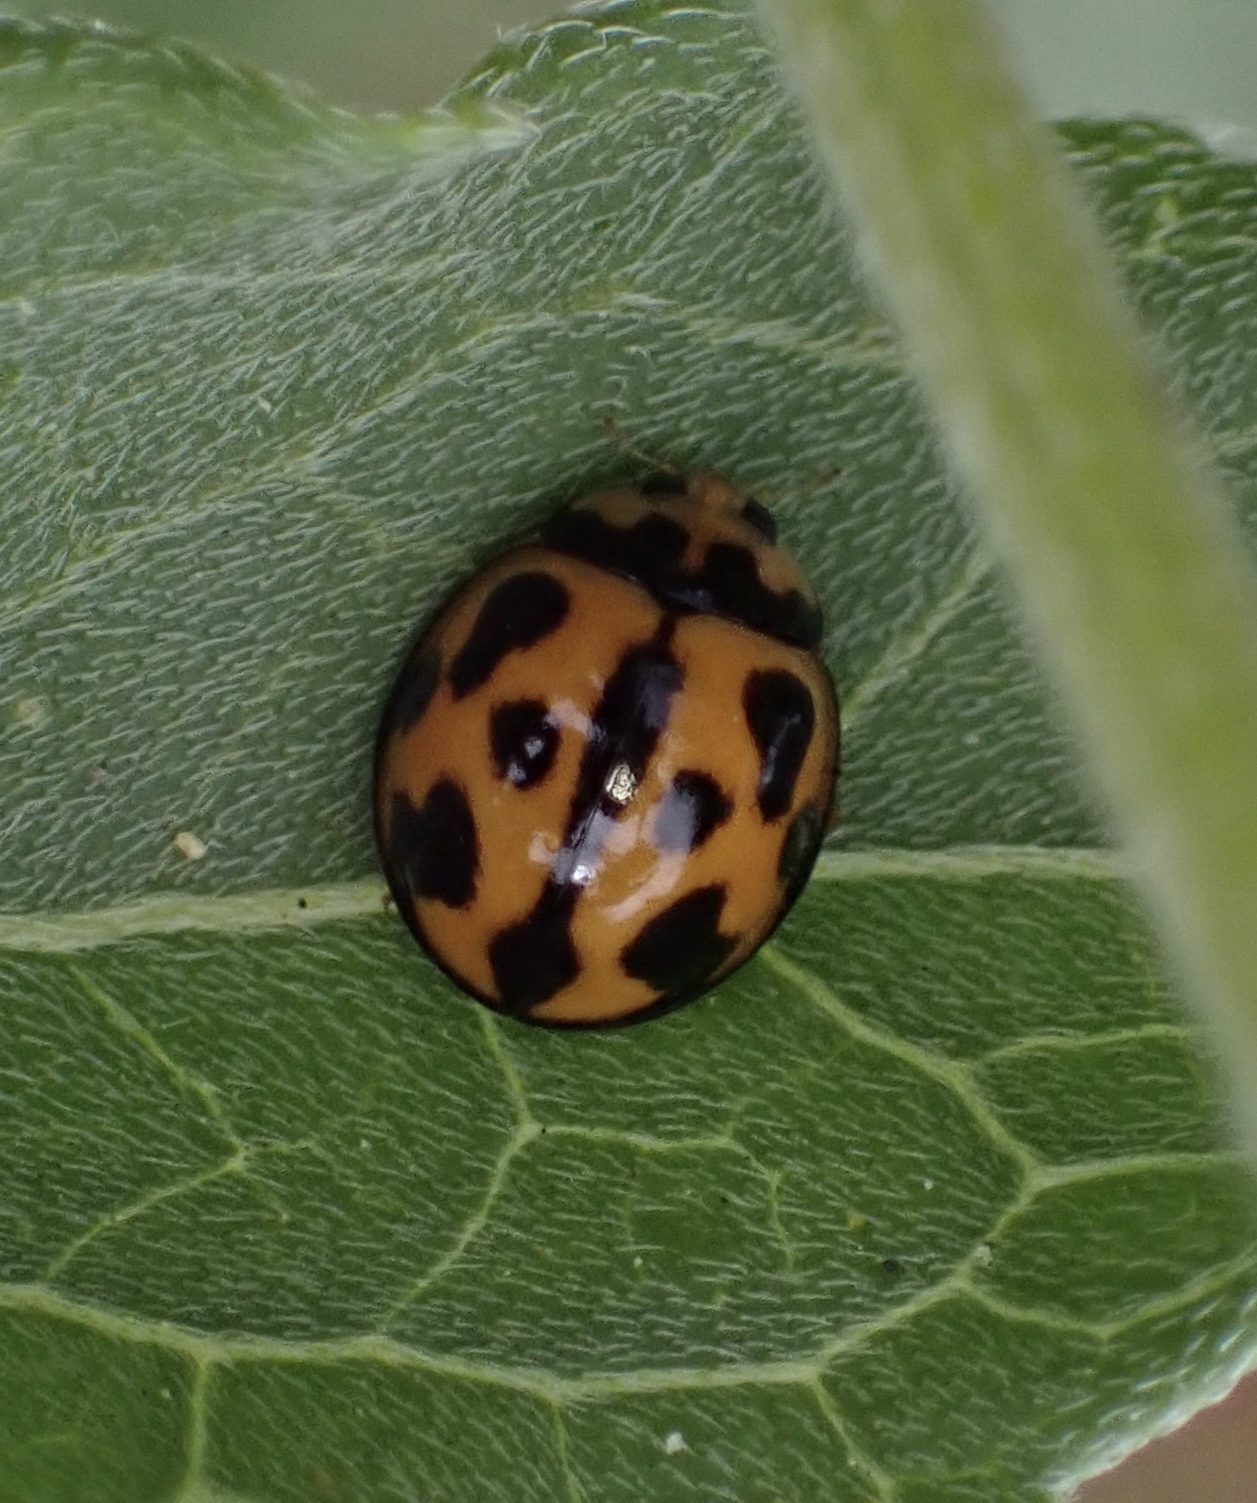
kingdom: Animalia
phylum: Arthropoda
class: Insecta
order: Coleoptera
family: Coccinellidae
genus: Coelophora
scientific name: Coelophora inaequalis
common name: Common australian lady beetle
